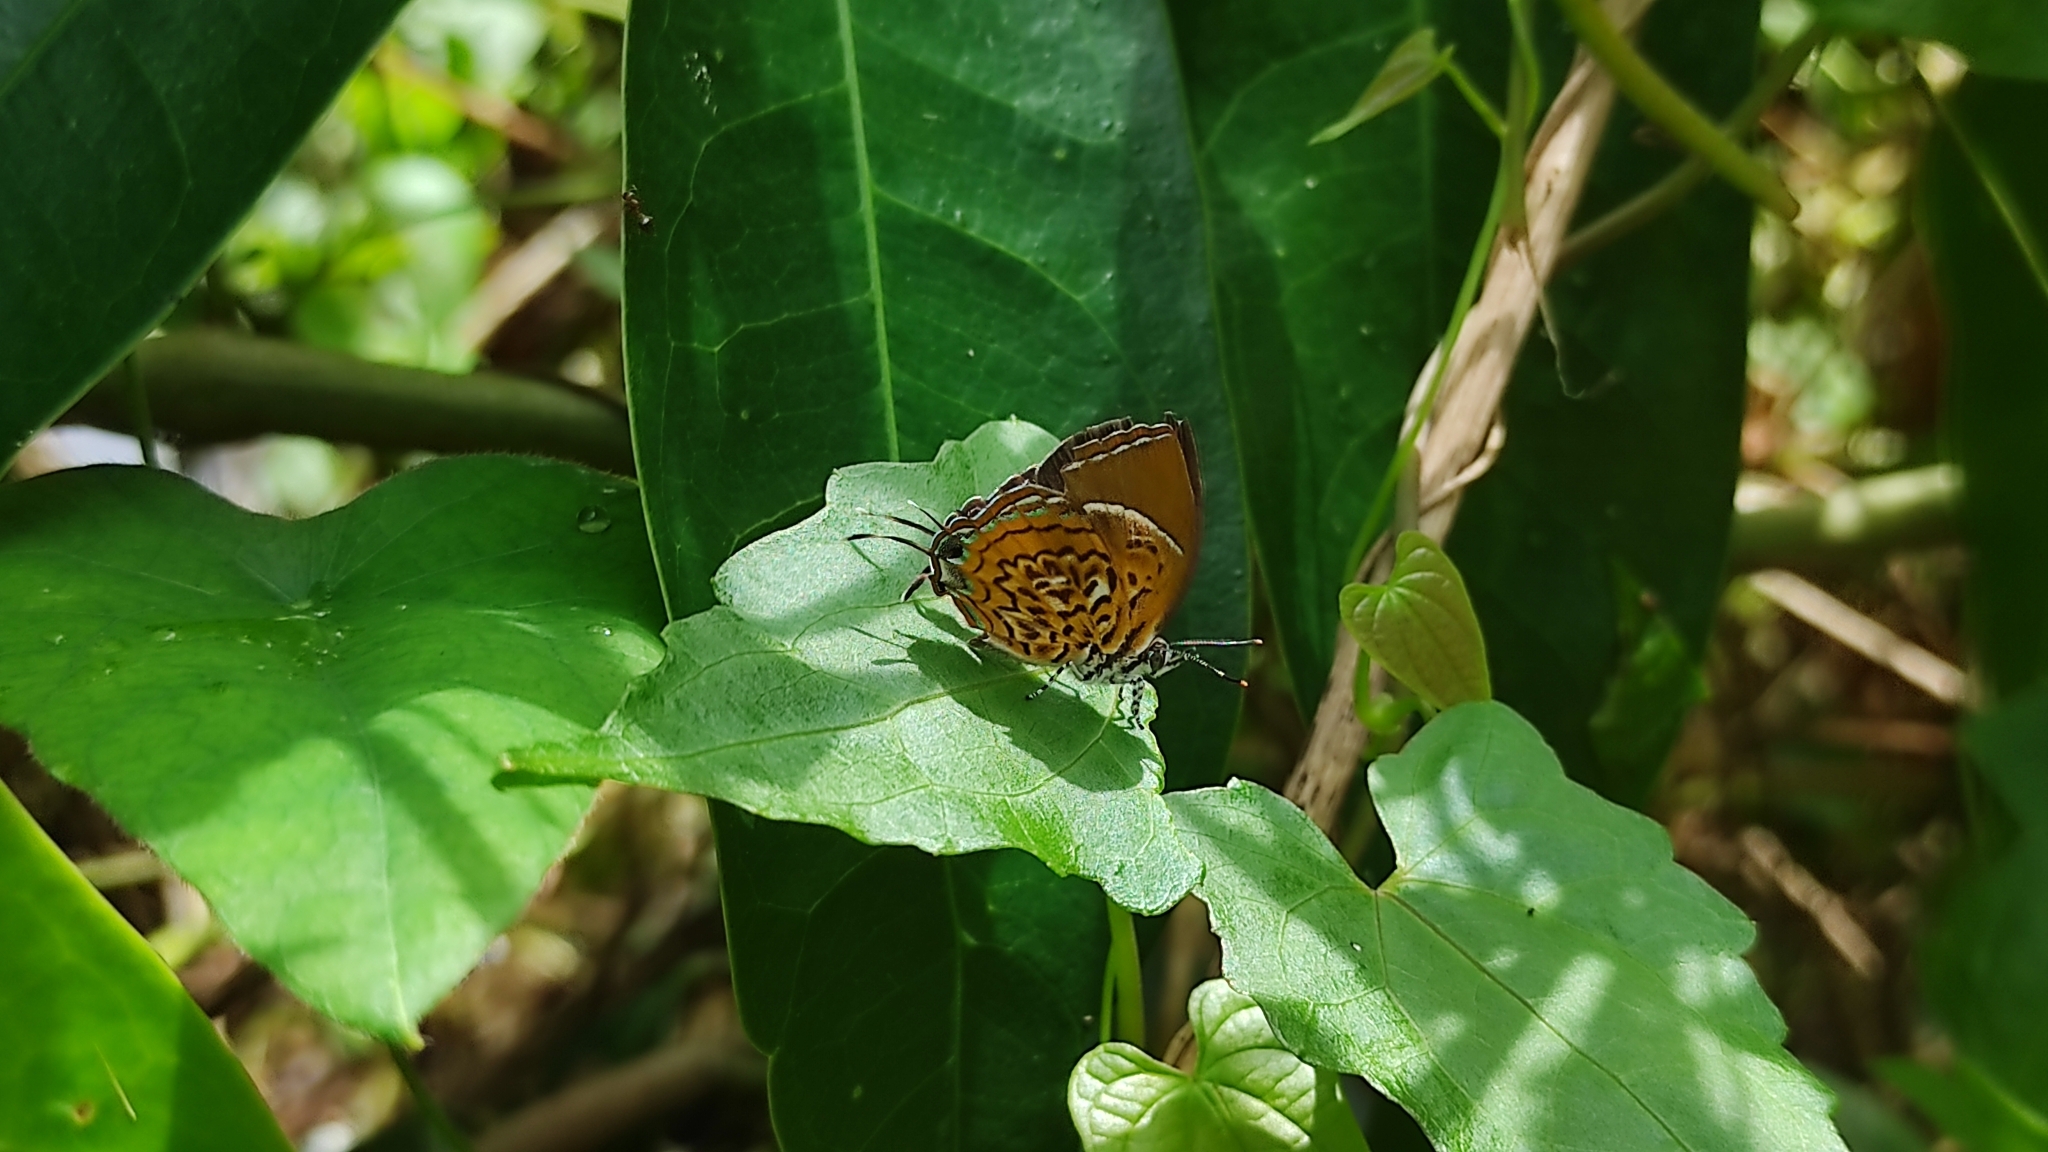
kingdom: Animalia
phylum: Arthropoda
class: Insecta
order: Lepidoptera
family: Lycaenidae
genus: Rathinda
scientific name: Rathinda amor
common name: Monkey puzzle
